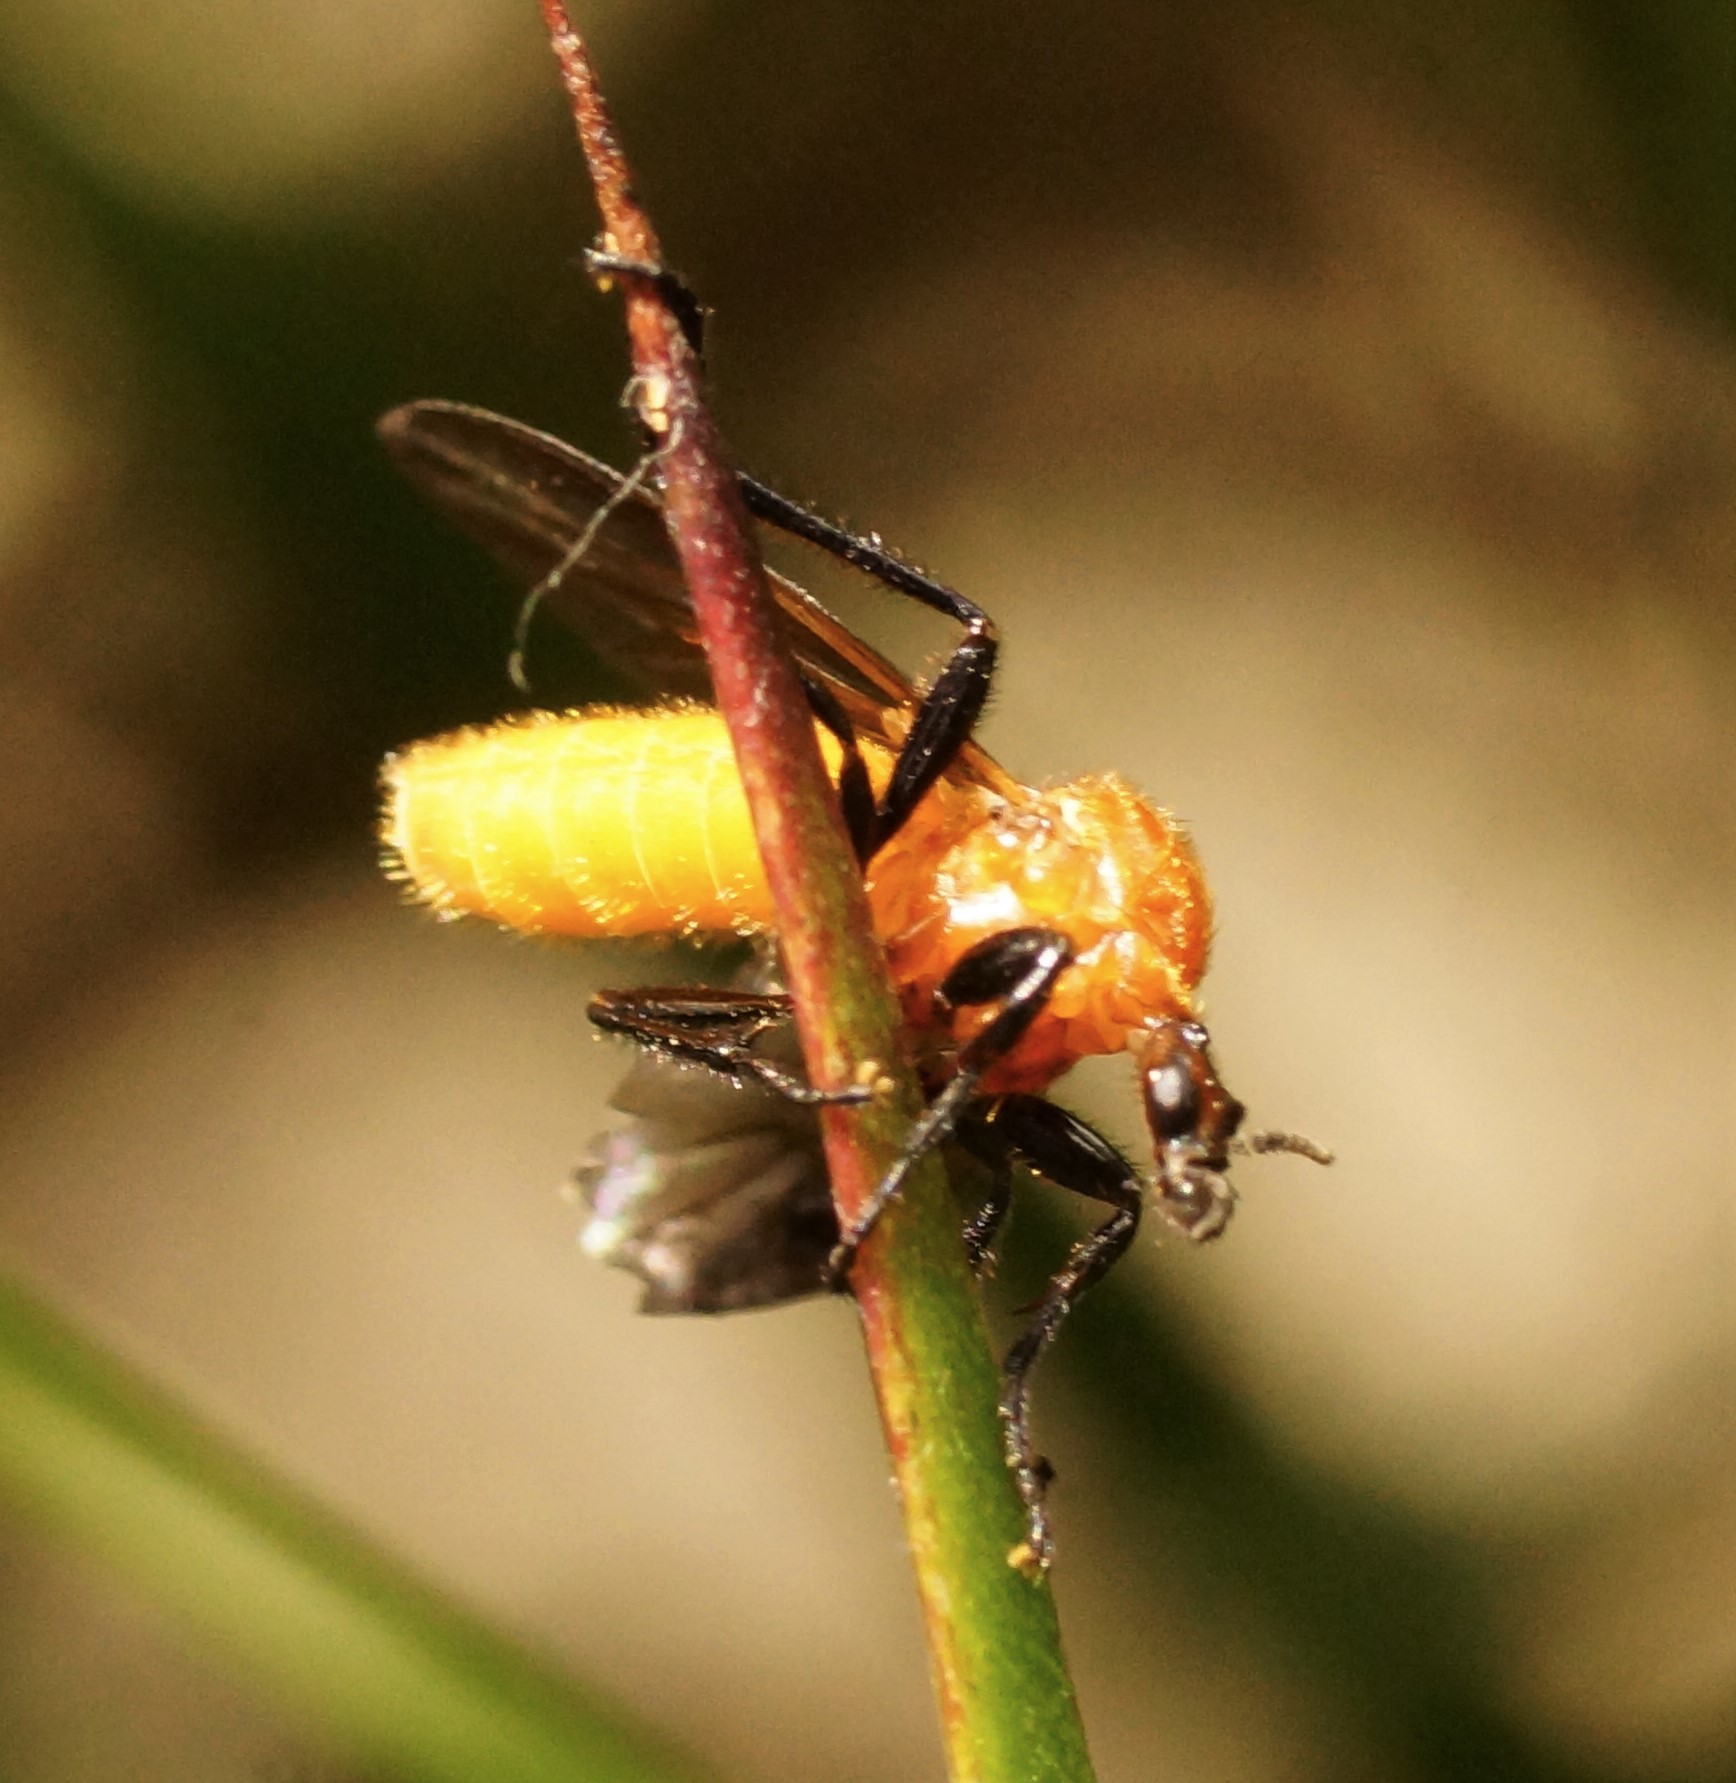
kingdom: Animalia
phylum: Arthropoda
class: Insecta
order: Diptera
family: Bibionidae
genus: Bibio
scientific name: Bibio imitator
